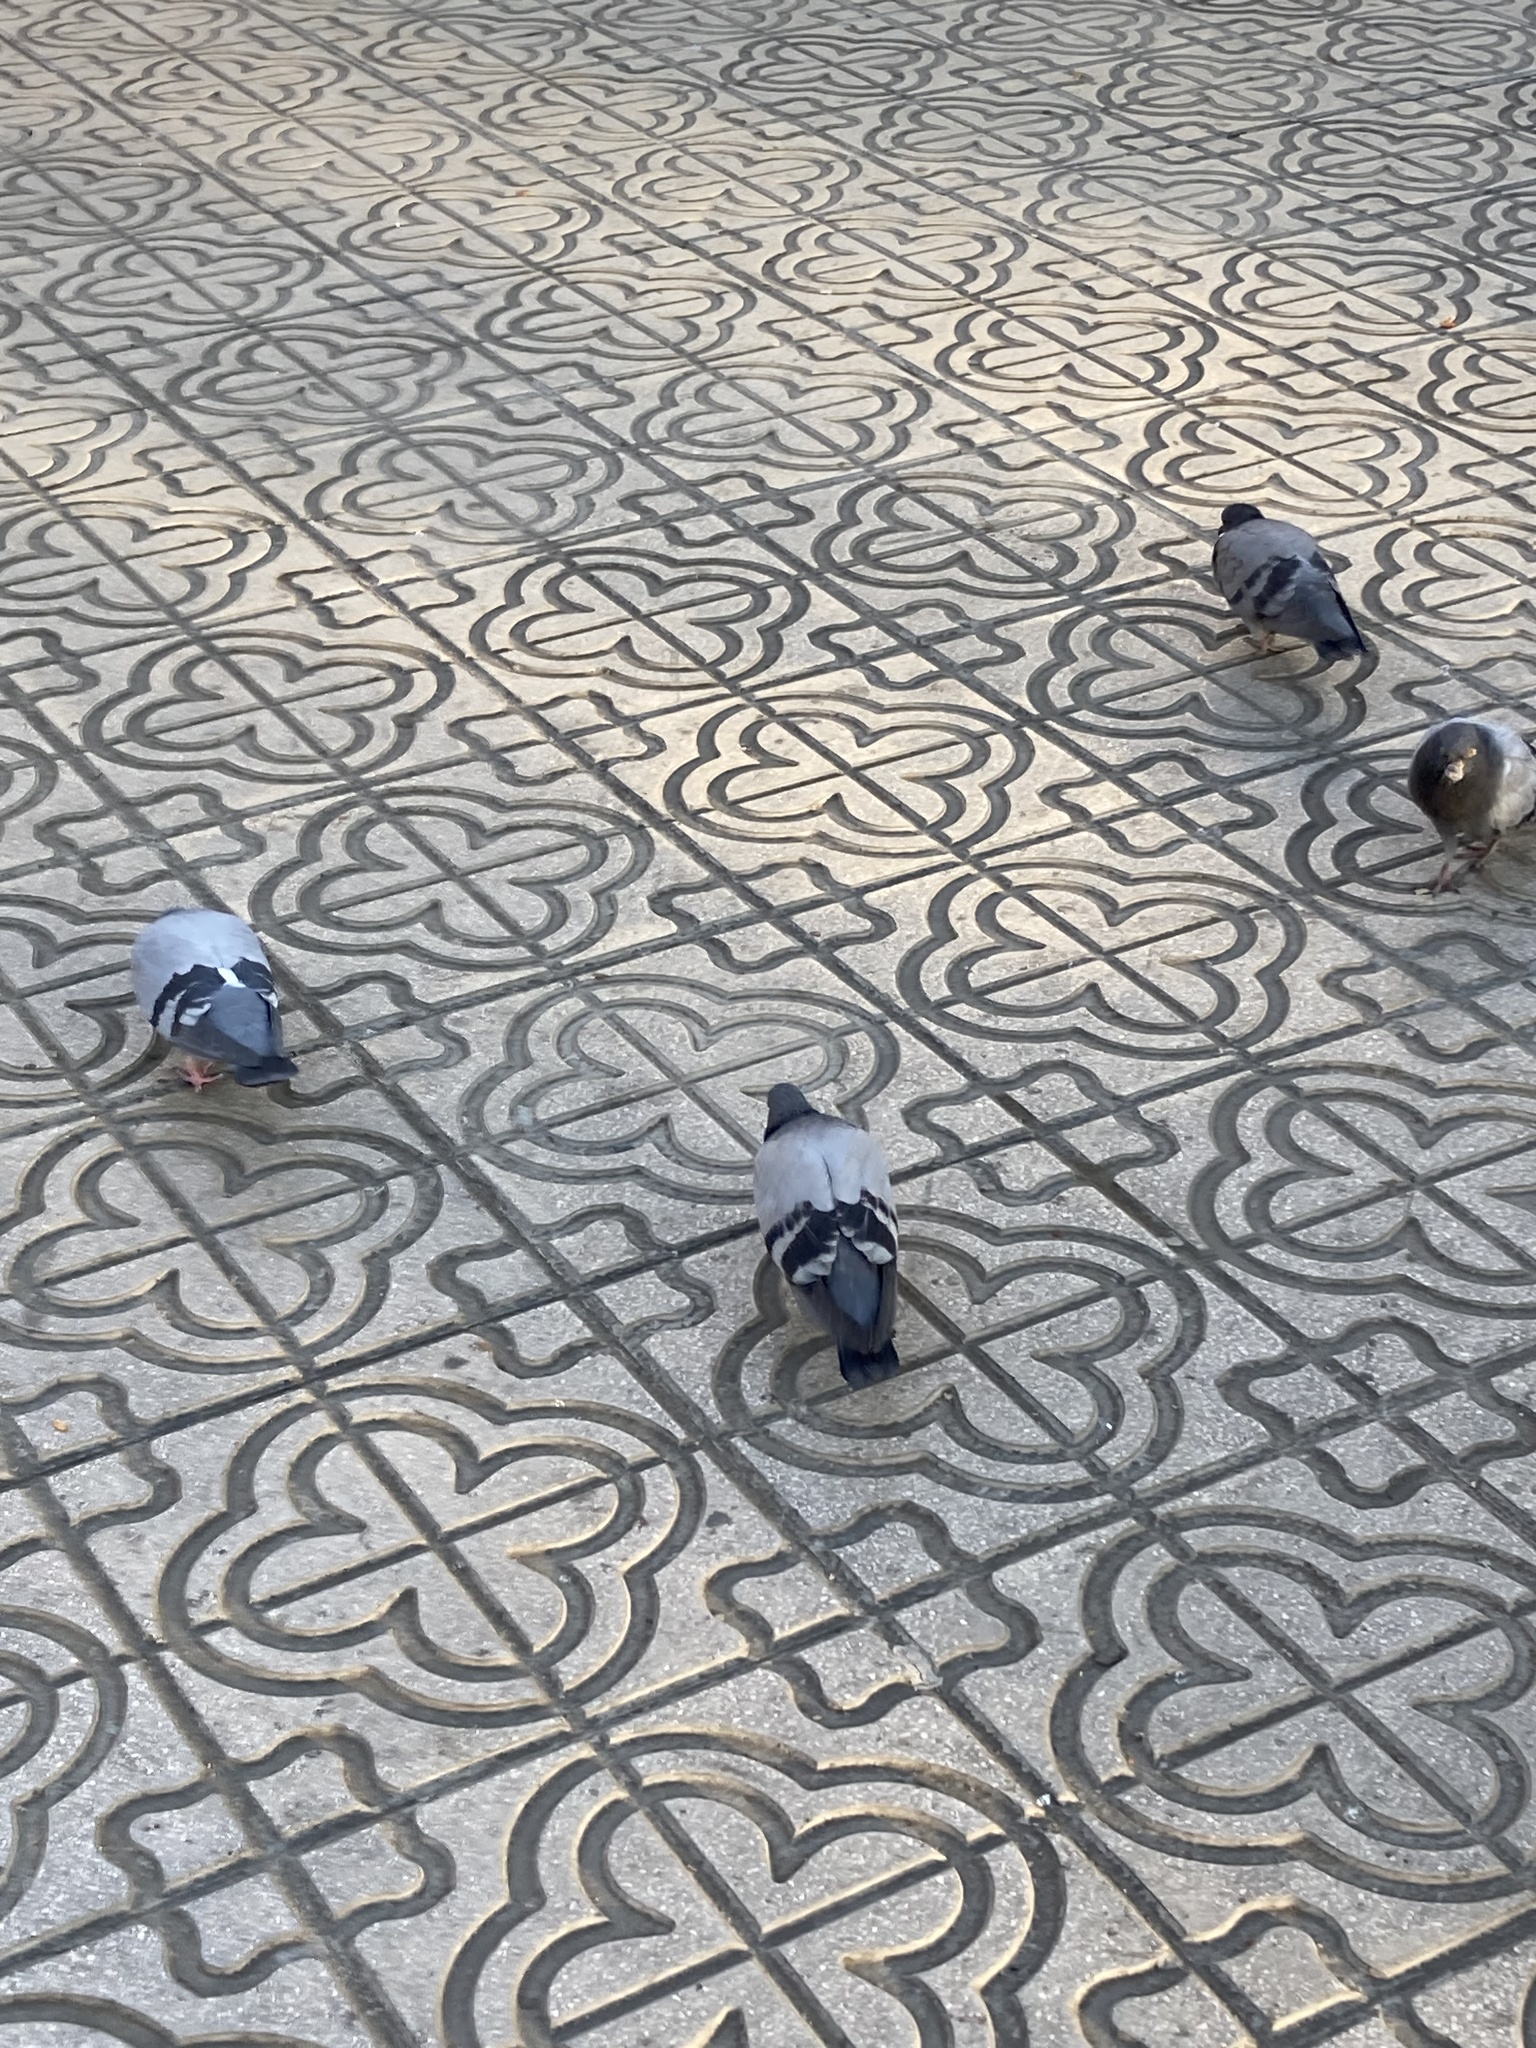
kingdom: Animalia
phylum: Chordata
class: Aves
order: Columbiformes
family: Columbidae
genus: Columba
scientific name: Columba livia
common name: Rock pigeon
